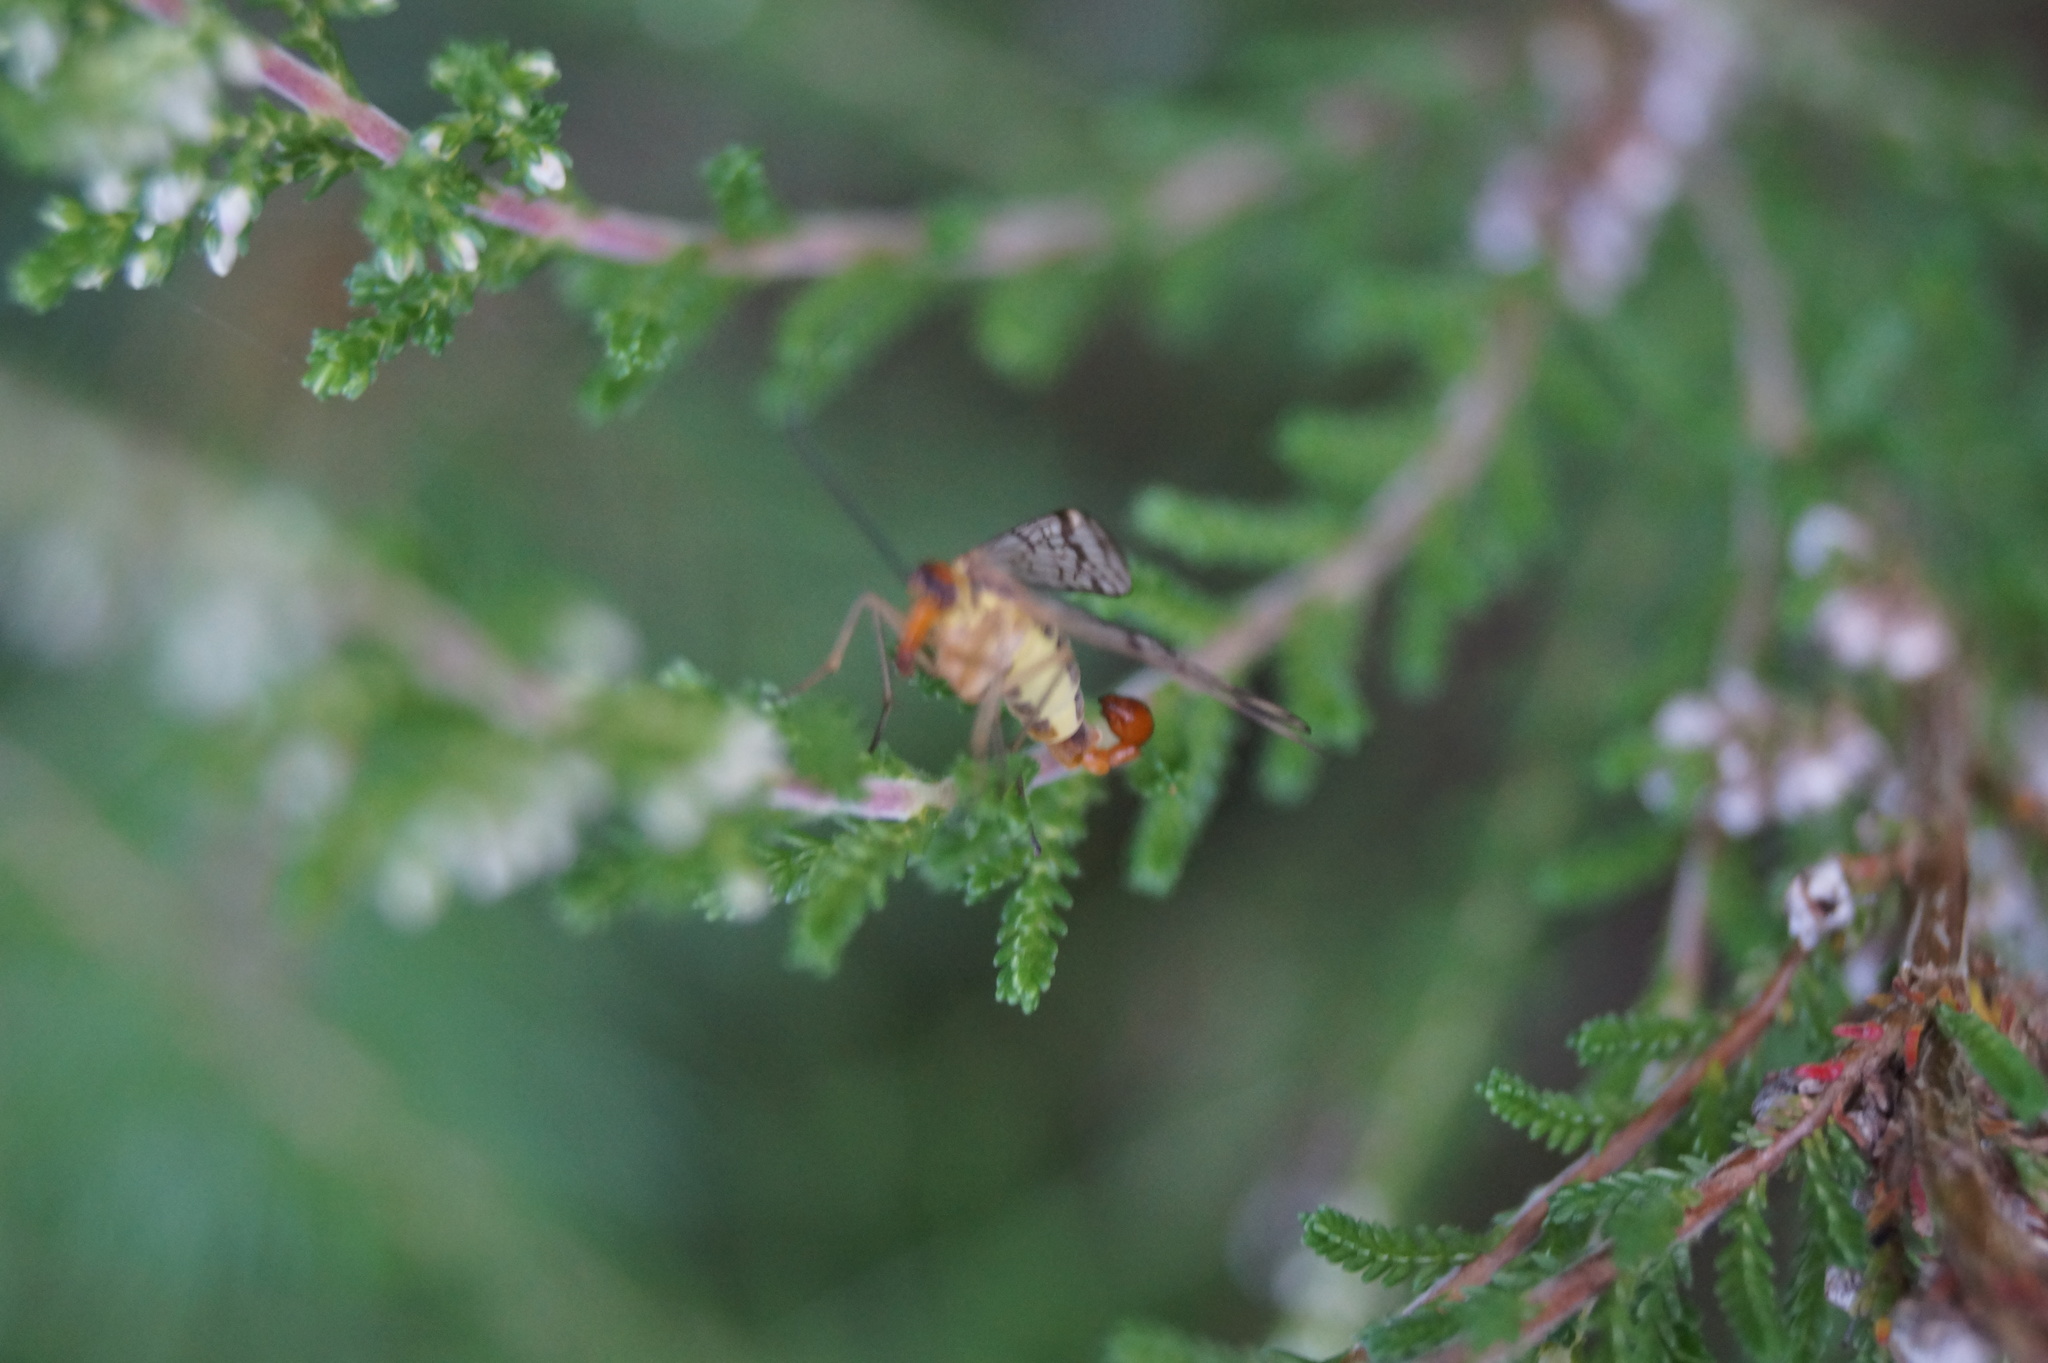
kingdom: Animalia
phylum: Arthropoda
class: Insecta
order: Mecoptera
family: Panorpidae
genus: Panorpa
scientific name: Panorpa cognata
